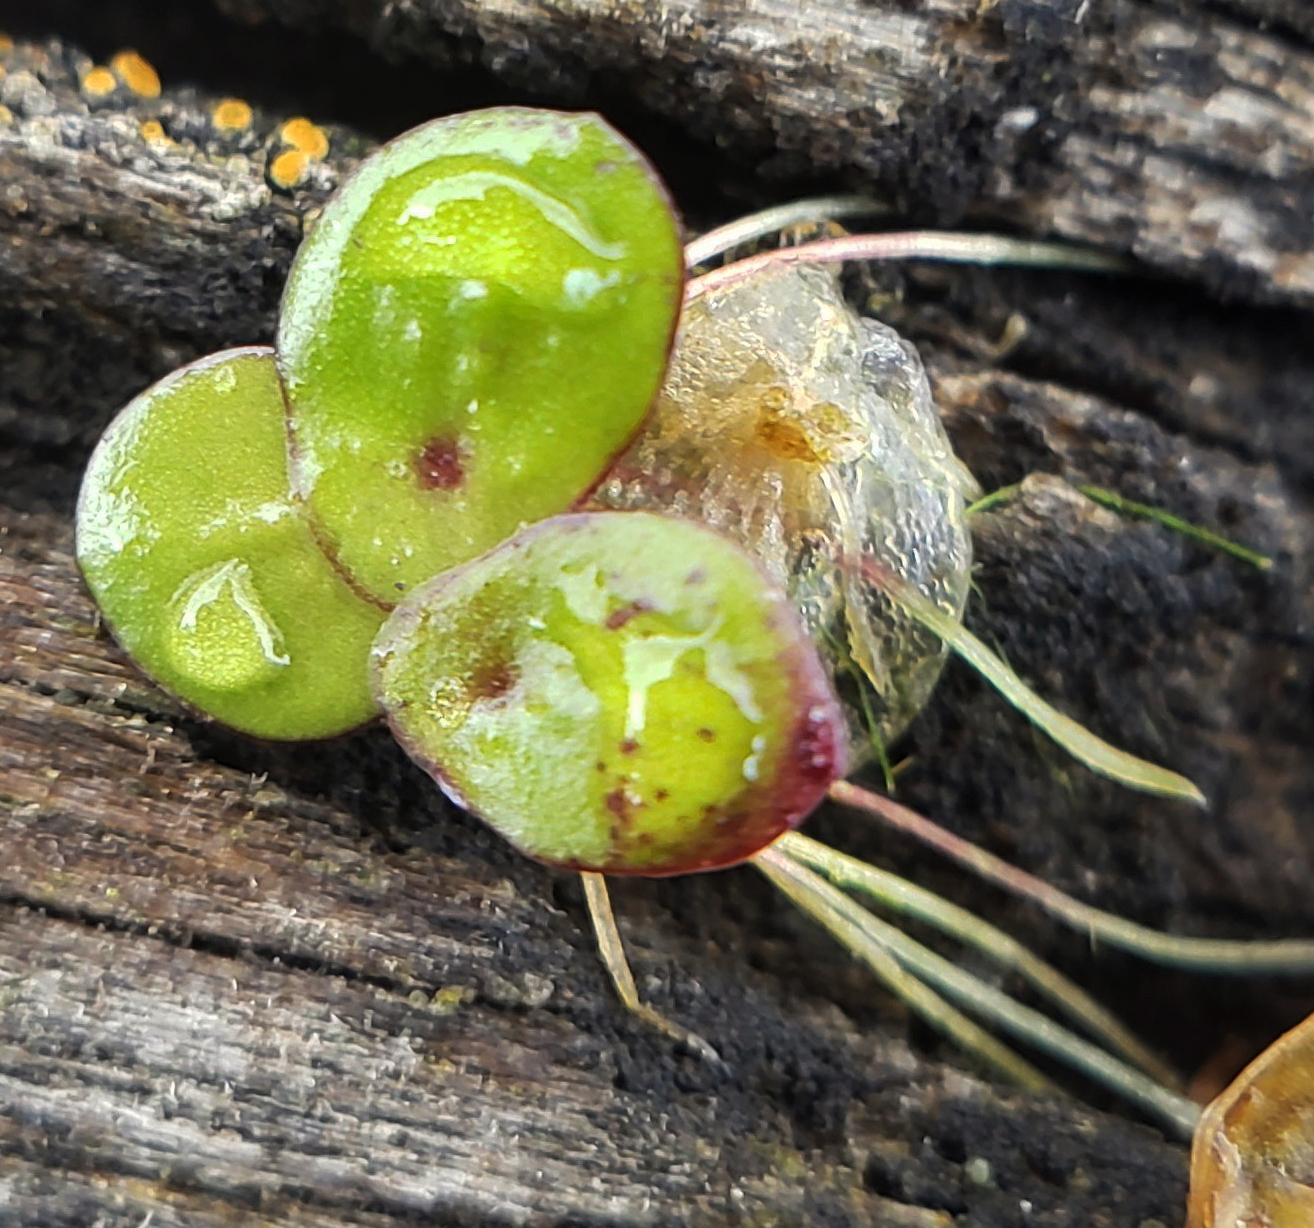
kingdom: Plantae
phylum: Tracheophyta
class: Liliopsida
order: Alismatales
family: Araceae
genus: Spirodela
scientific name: Spirodela polyrhiza
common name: Great duckweed
